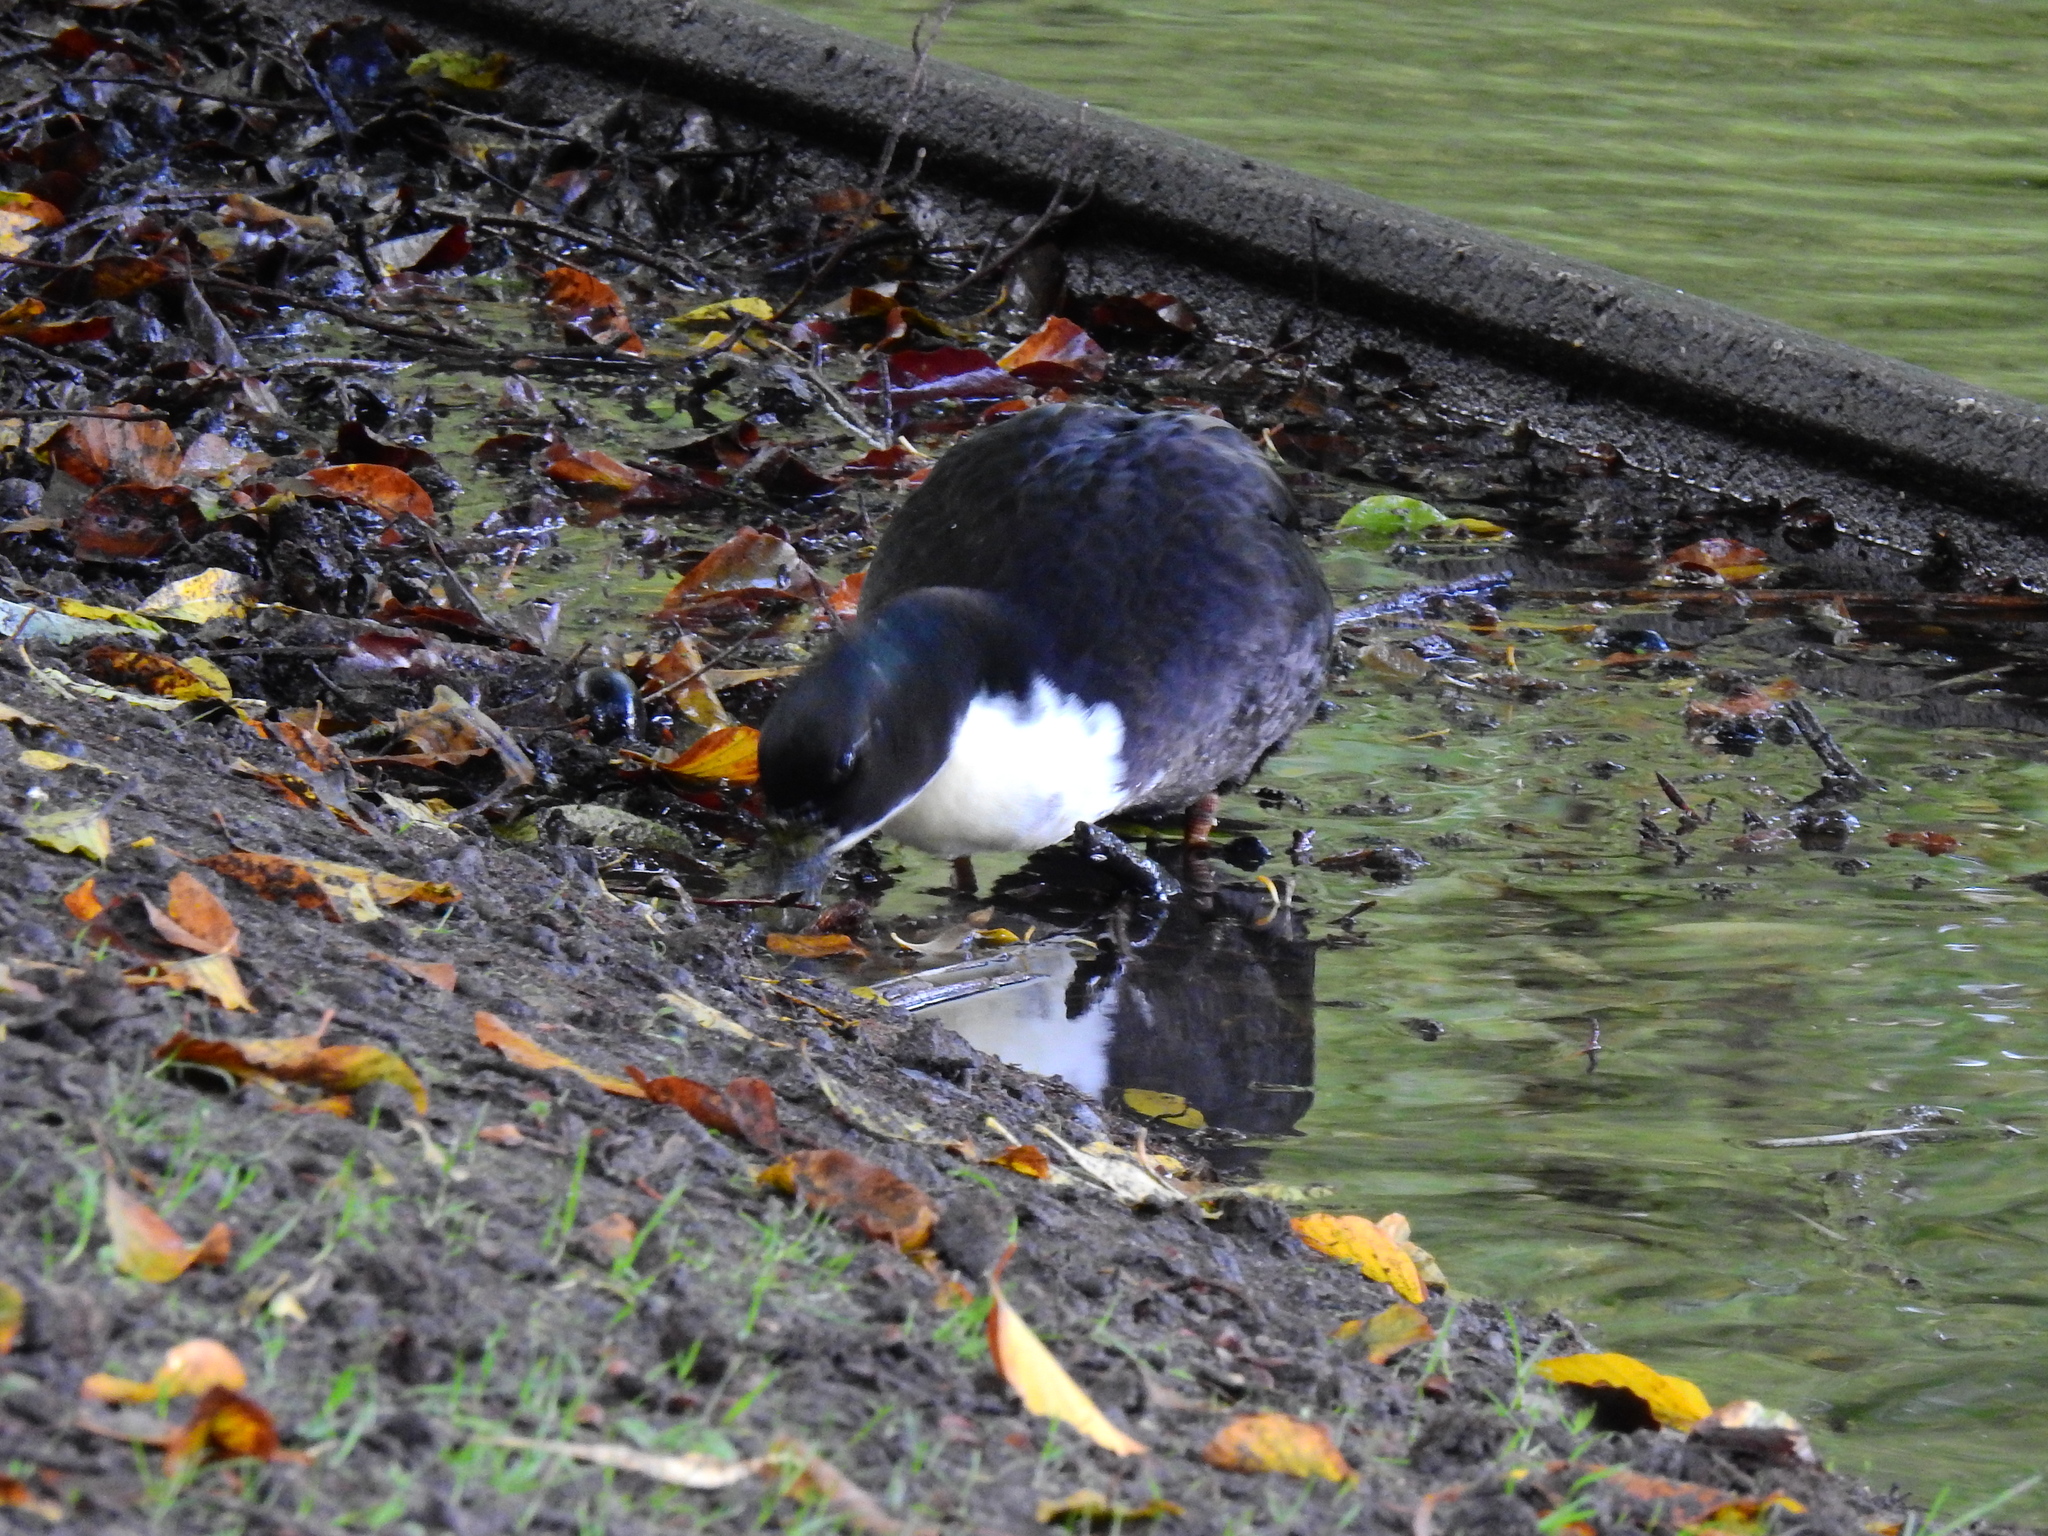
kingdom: Animalia
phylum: Chordata
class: Aves
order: Anseriformes
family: Anatidae
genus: Anas
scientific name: Anas platyrhynchos
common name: Mallard
